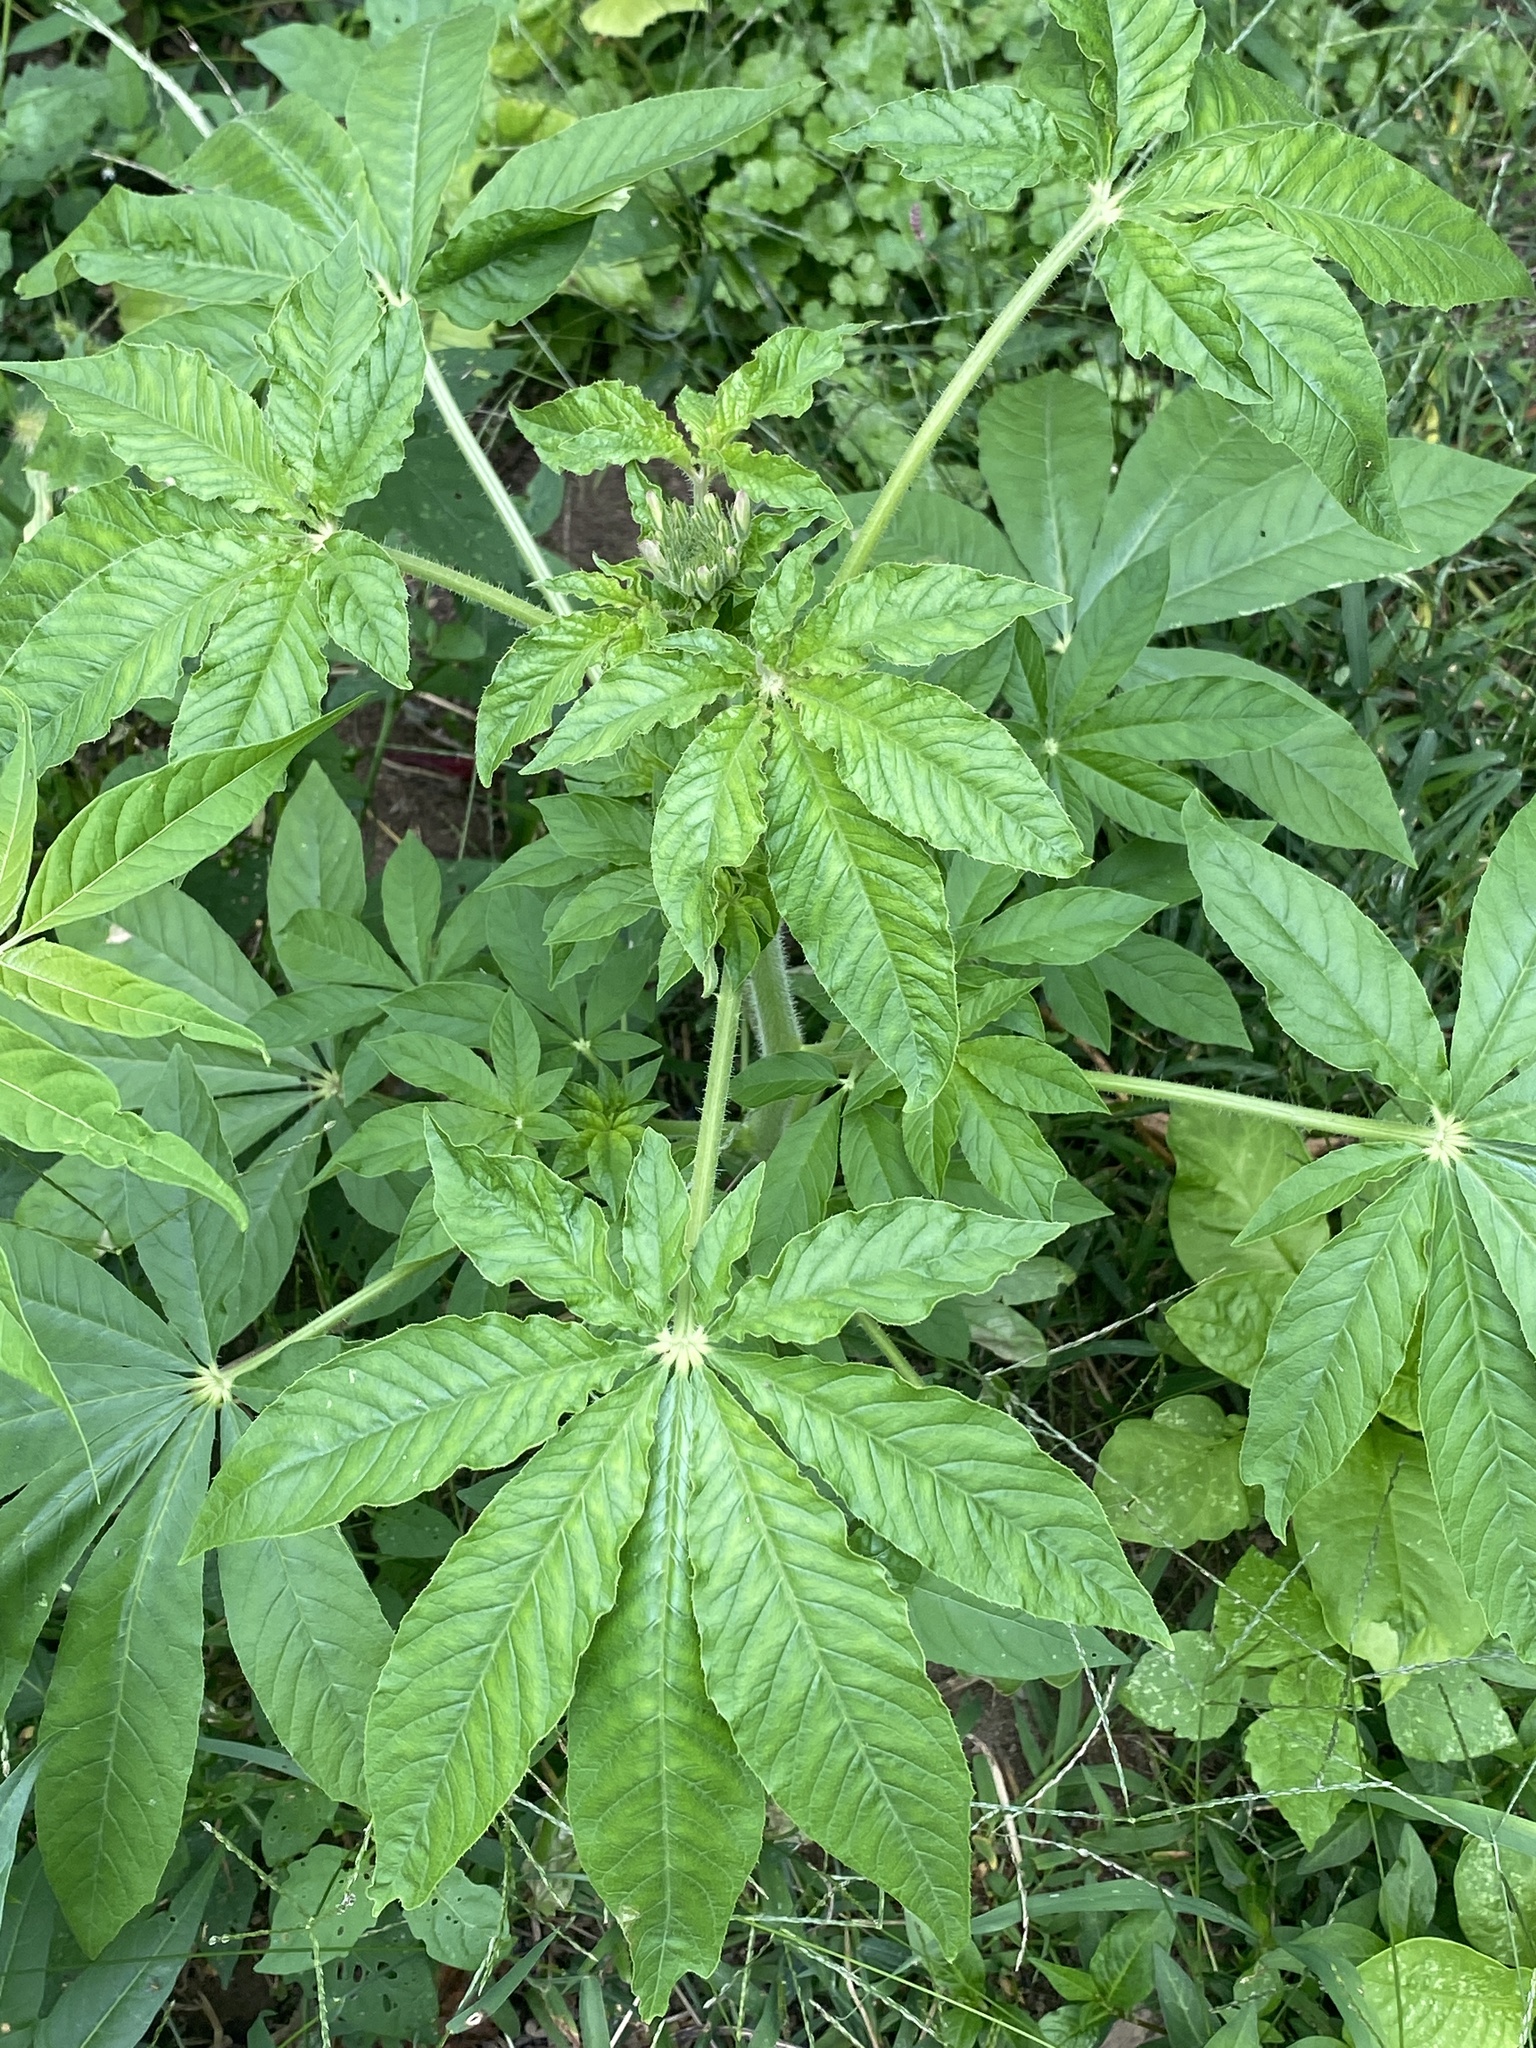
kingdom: Plantae
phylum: Tracheophyta
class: Magnoliopsida
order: Brassicales
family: Cleomaceae
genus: Tarenaya
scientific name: Tarenaya houtteana
